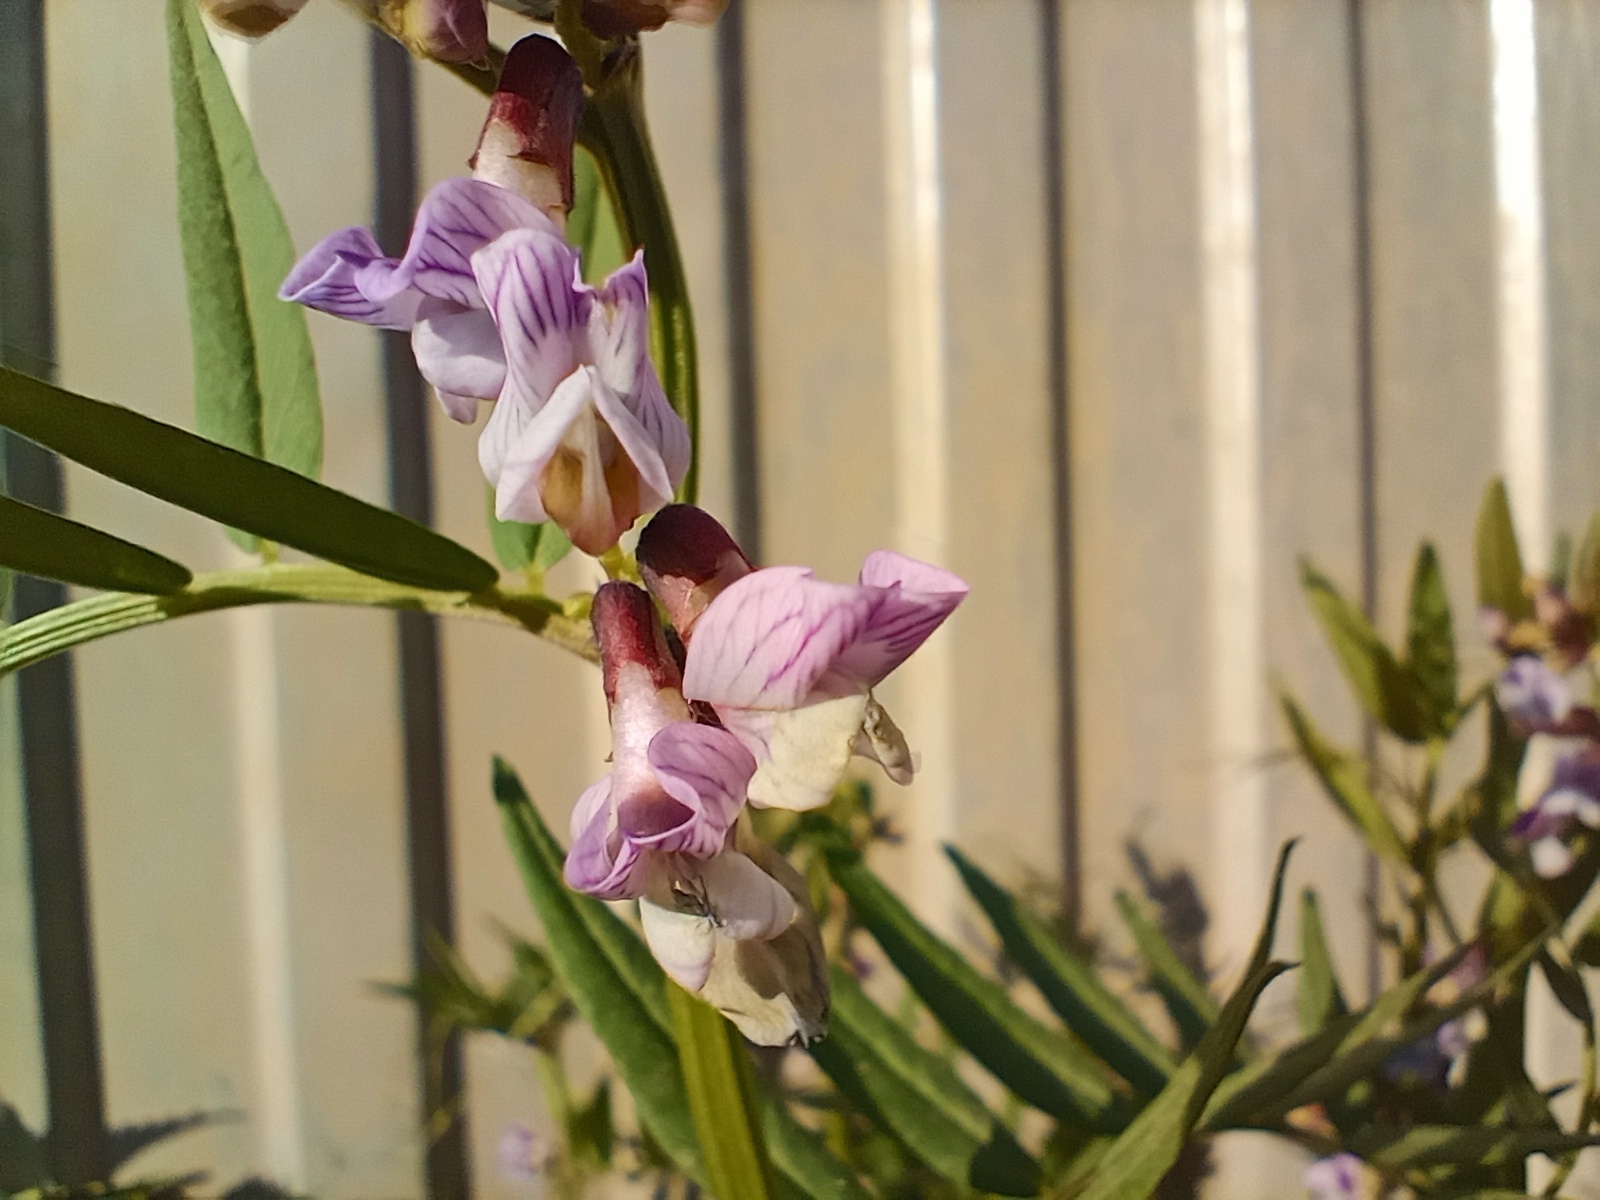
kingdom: Plantae
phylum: Tracheophyta
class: Magnoliopsida
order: Fabales
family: Fabaceae
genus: Vicia
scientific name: Vicia sepium
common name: Bush vetch
